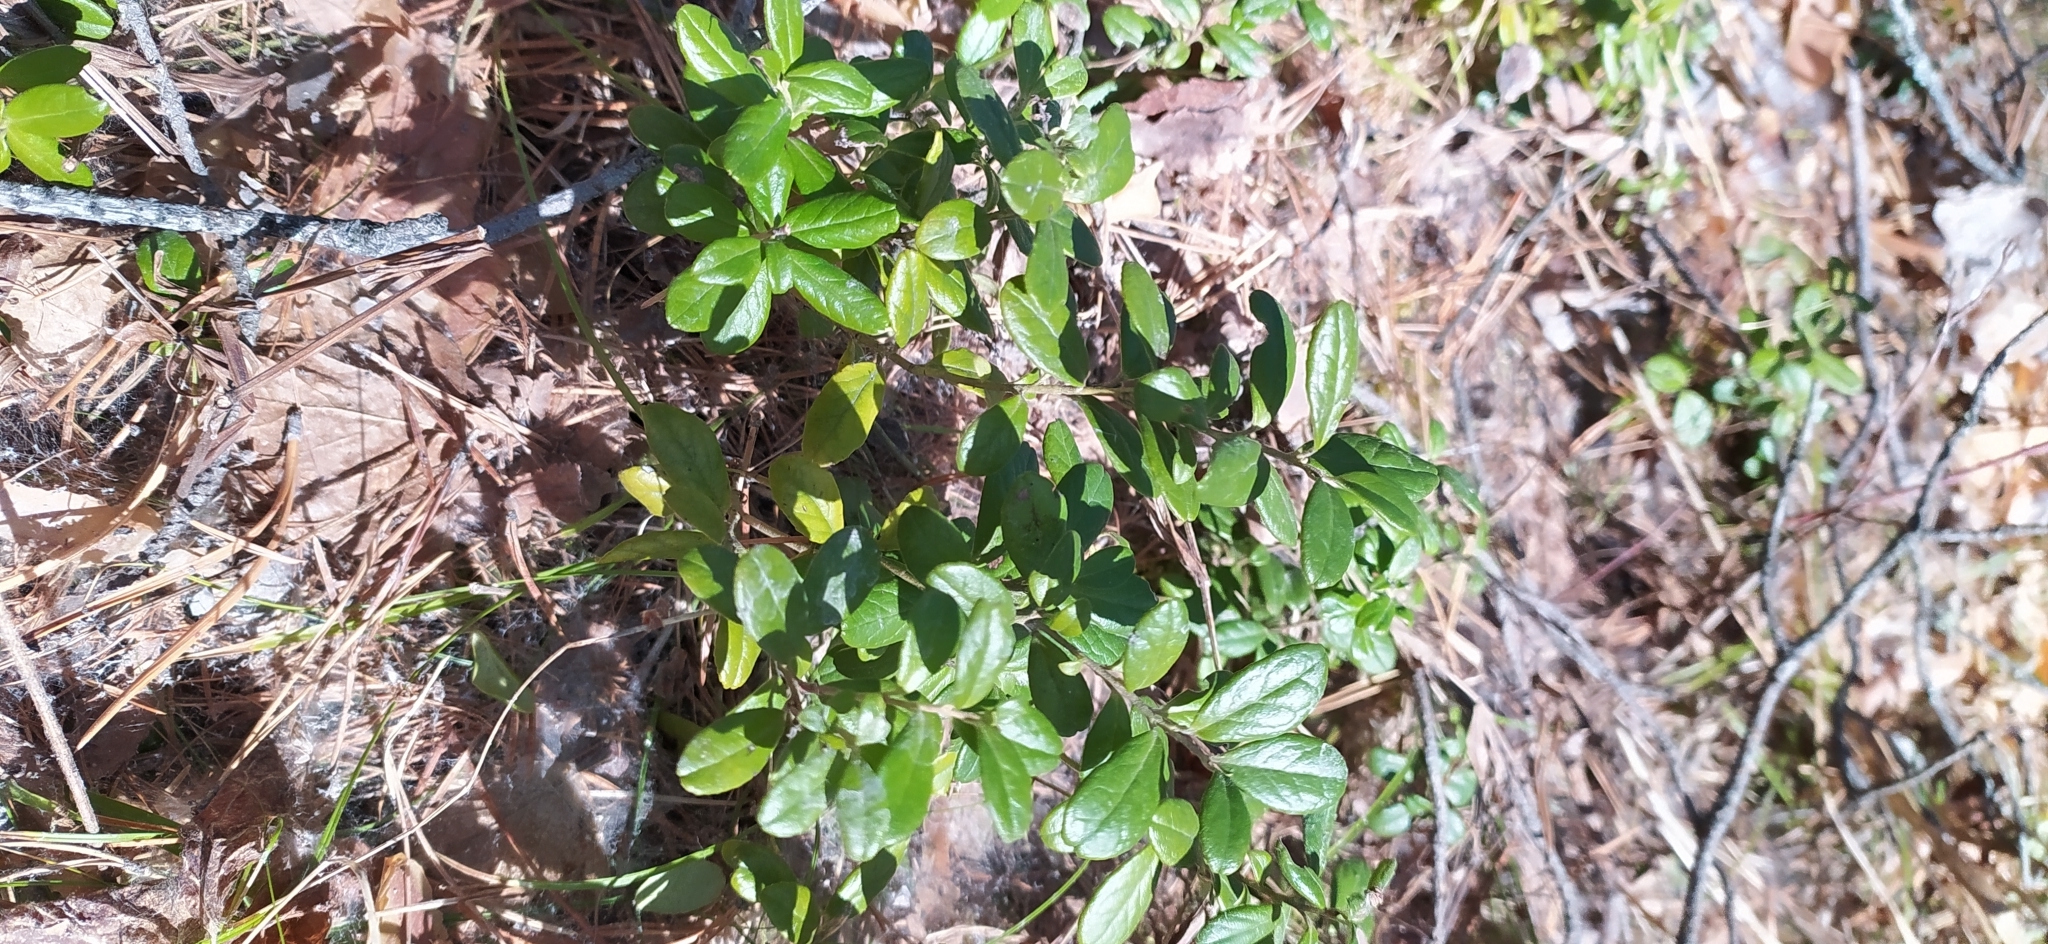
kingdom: Plantae
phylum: Tracheophyta
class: Magnoliopsida
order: Ericales
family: Ericaceae
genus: Vaccinium
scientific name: Vaccinium vitis-idaea
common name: Cowberry
